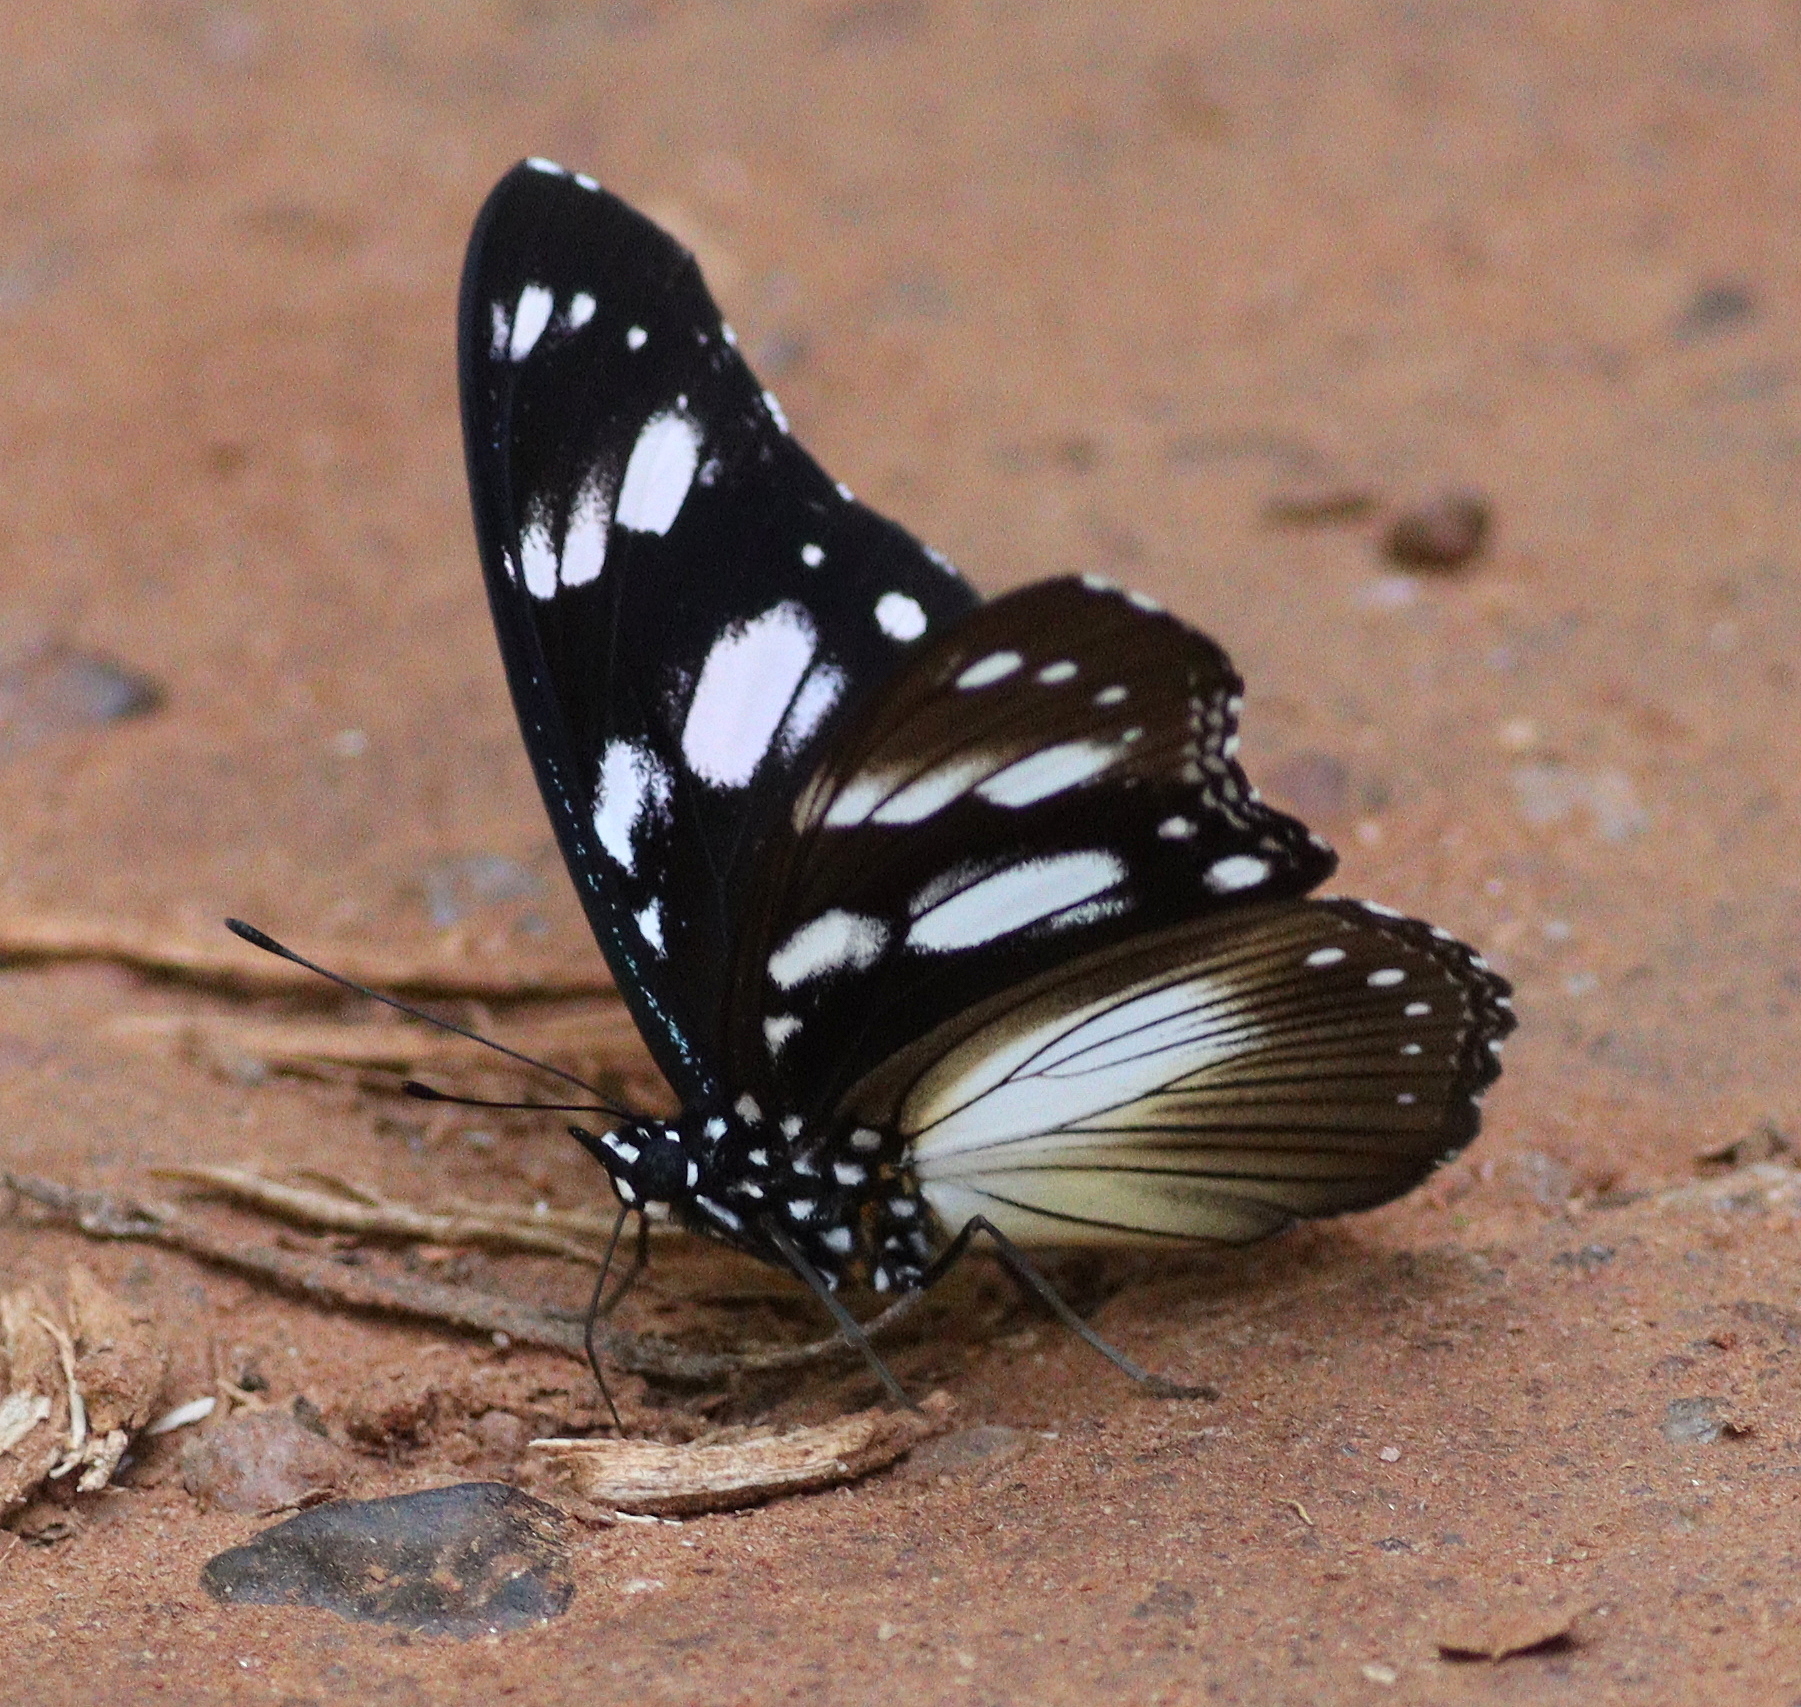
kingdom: Animalia
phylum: Arthropoda
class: Insecta
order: Lepidoptera
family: Nymphalidae
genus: Hypolimnas
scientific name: Hypolimnas dubius
